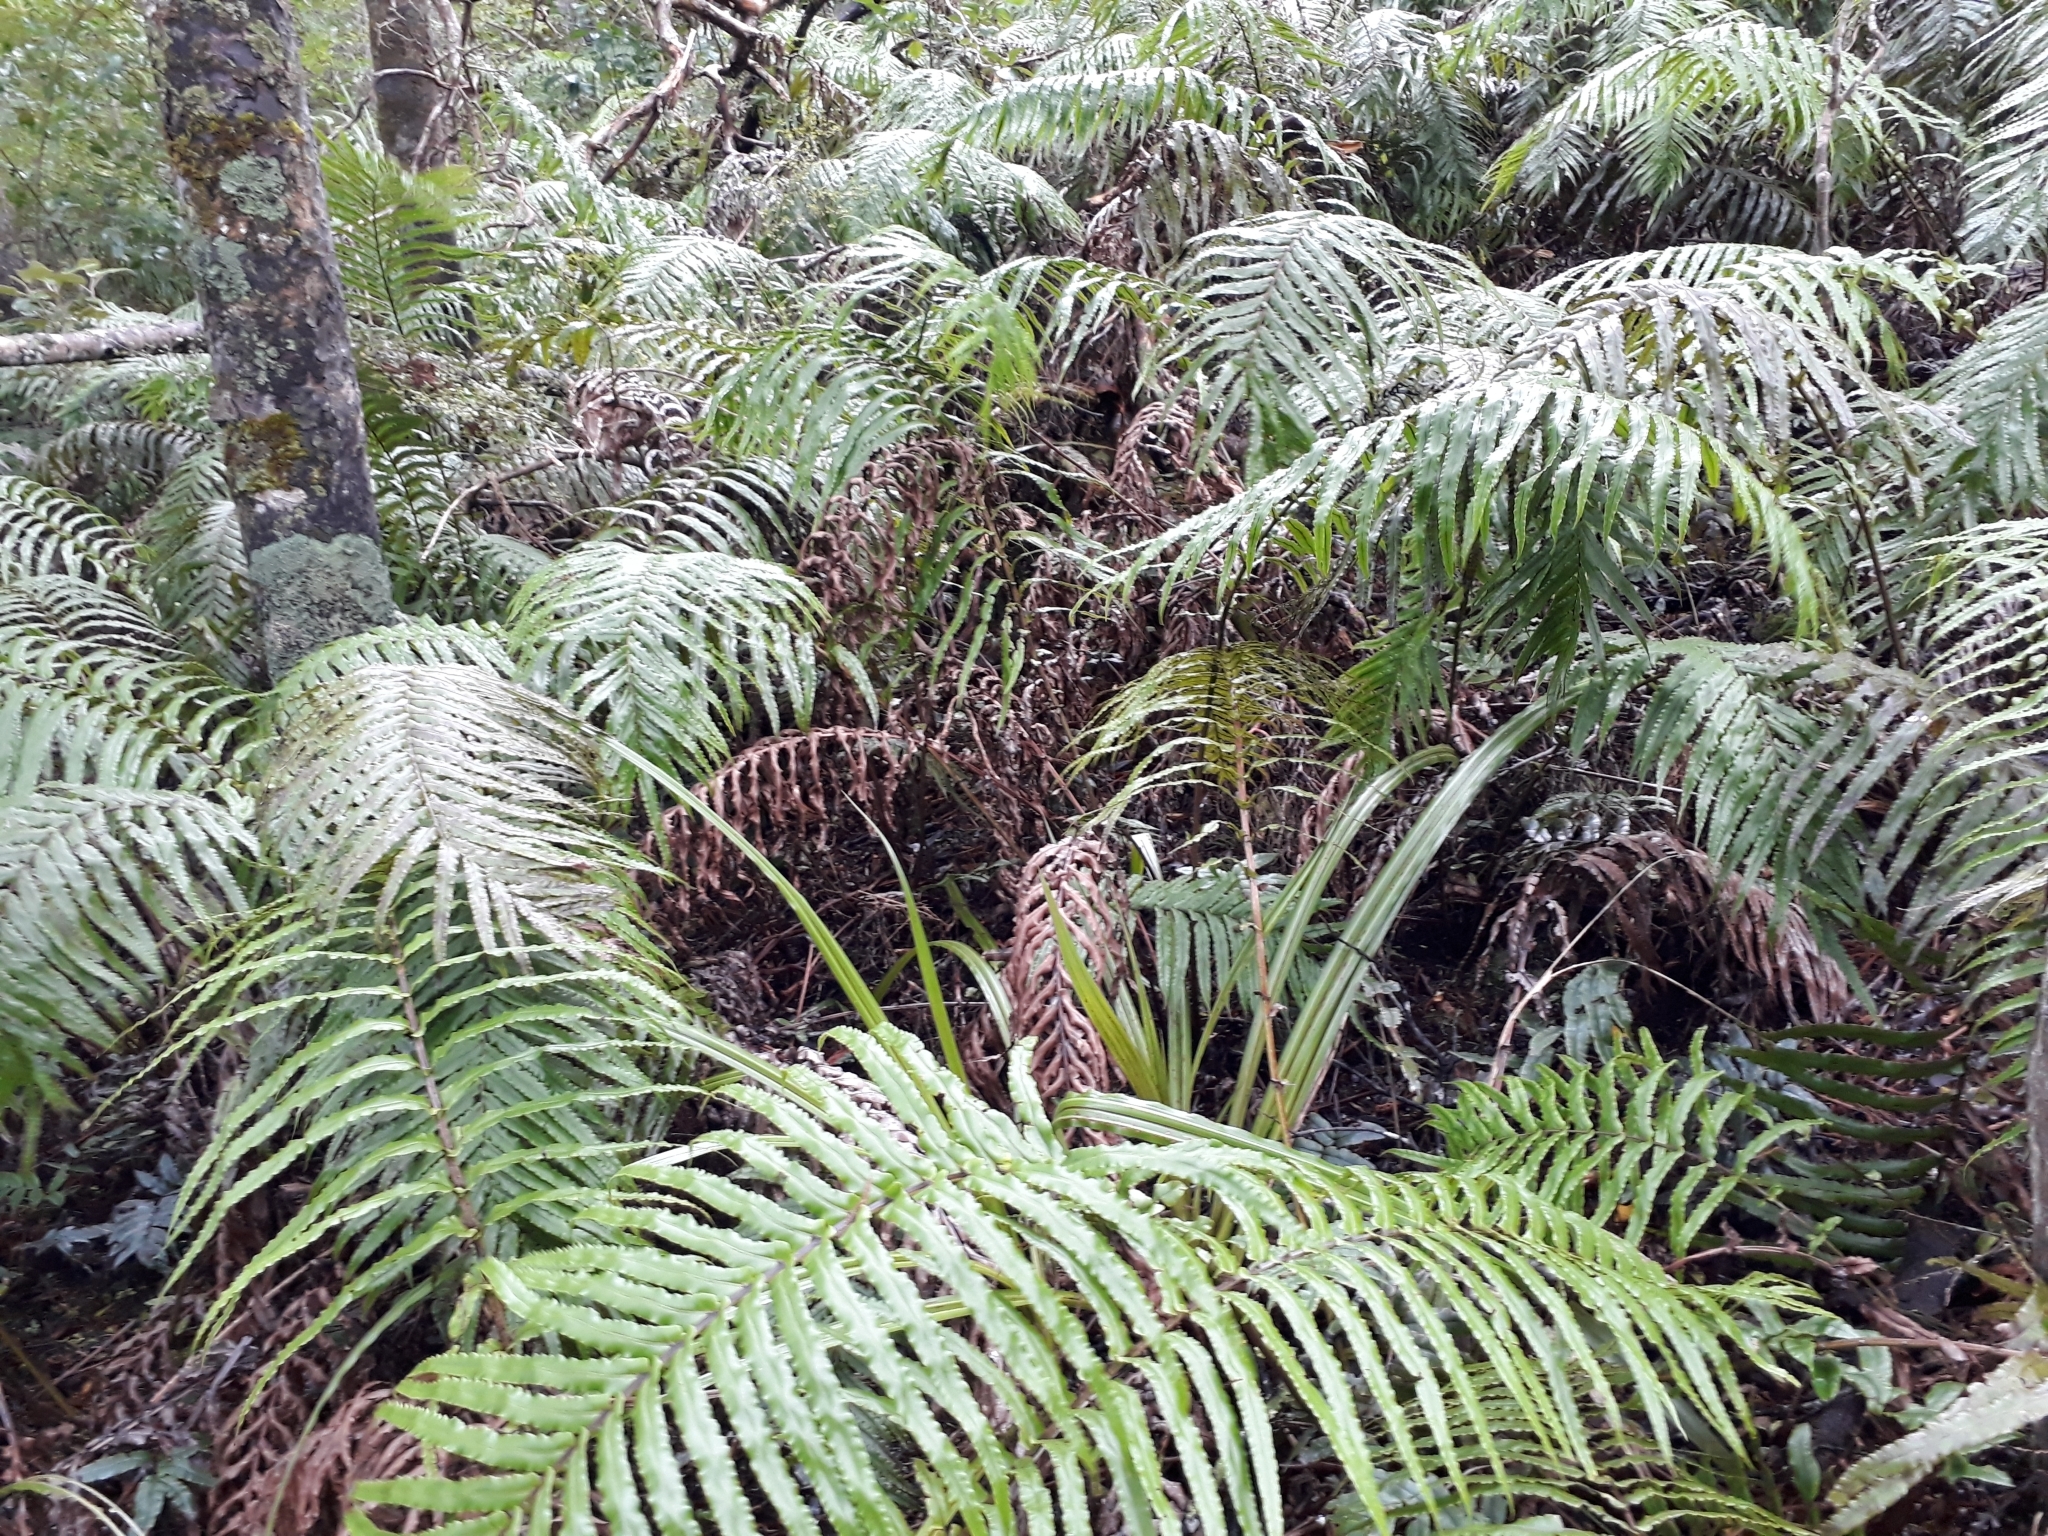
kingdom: Plantae
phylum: Tracheophyta
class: Polypodiopsida
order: Polypodiales
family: Blechnaceae
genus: Parablechnum
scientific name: Parablechnum novae-zelandiae
